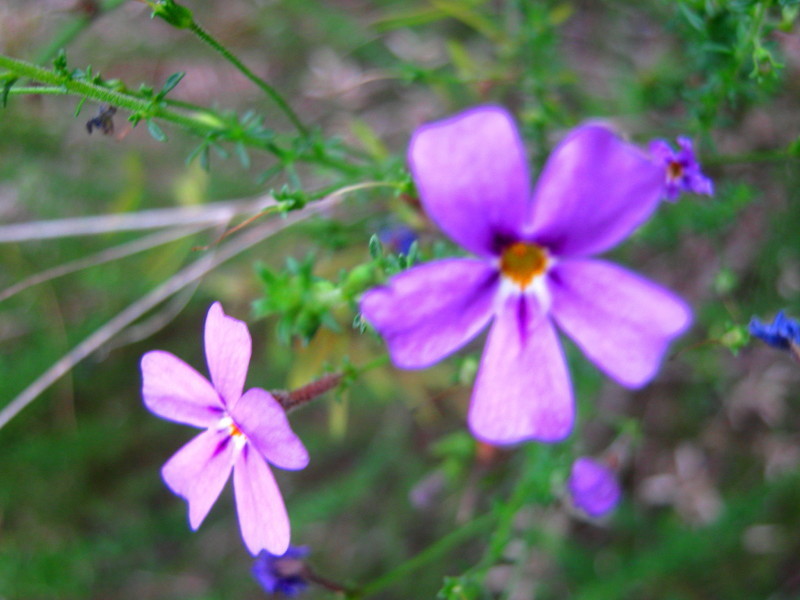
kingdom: Plantae
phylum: Tracheophyta
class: Magnoliopsida
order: Lamiales
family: Scrophulariaceae
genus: Jamesbrittenia
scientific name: Jamesbrittenia microphylla
